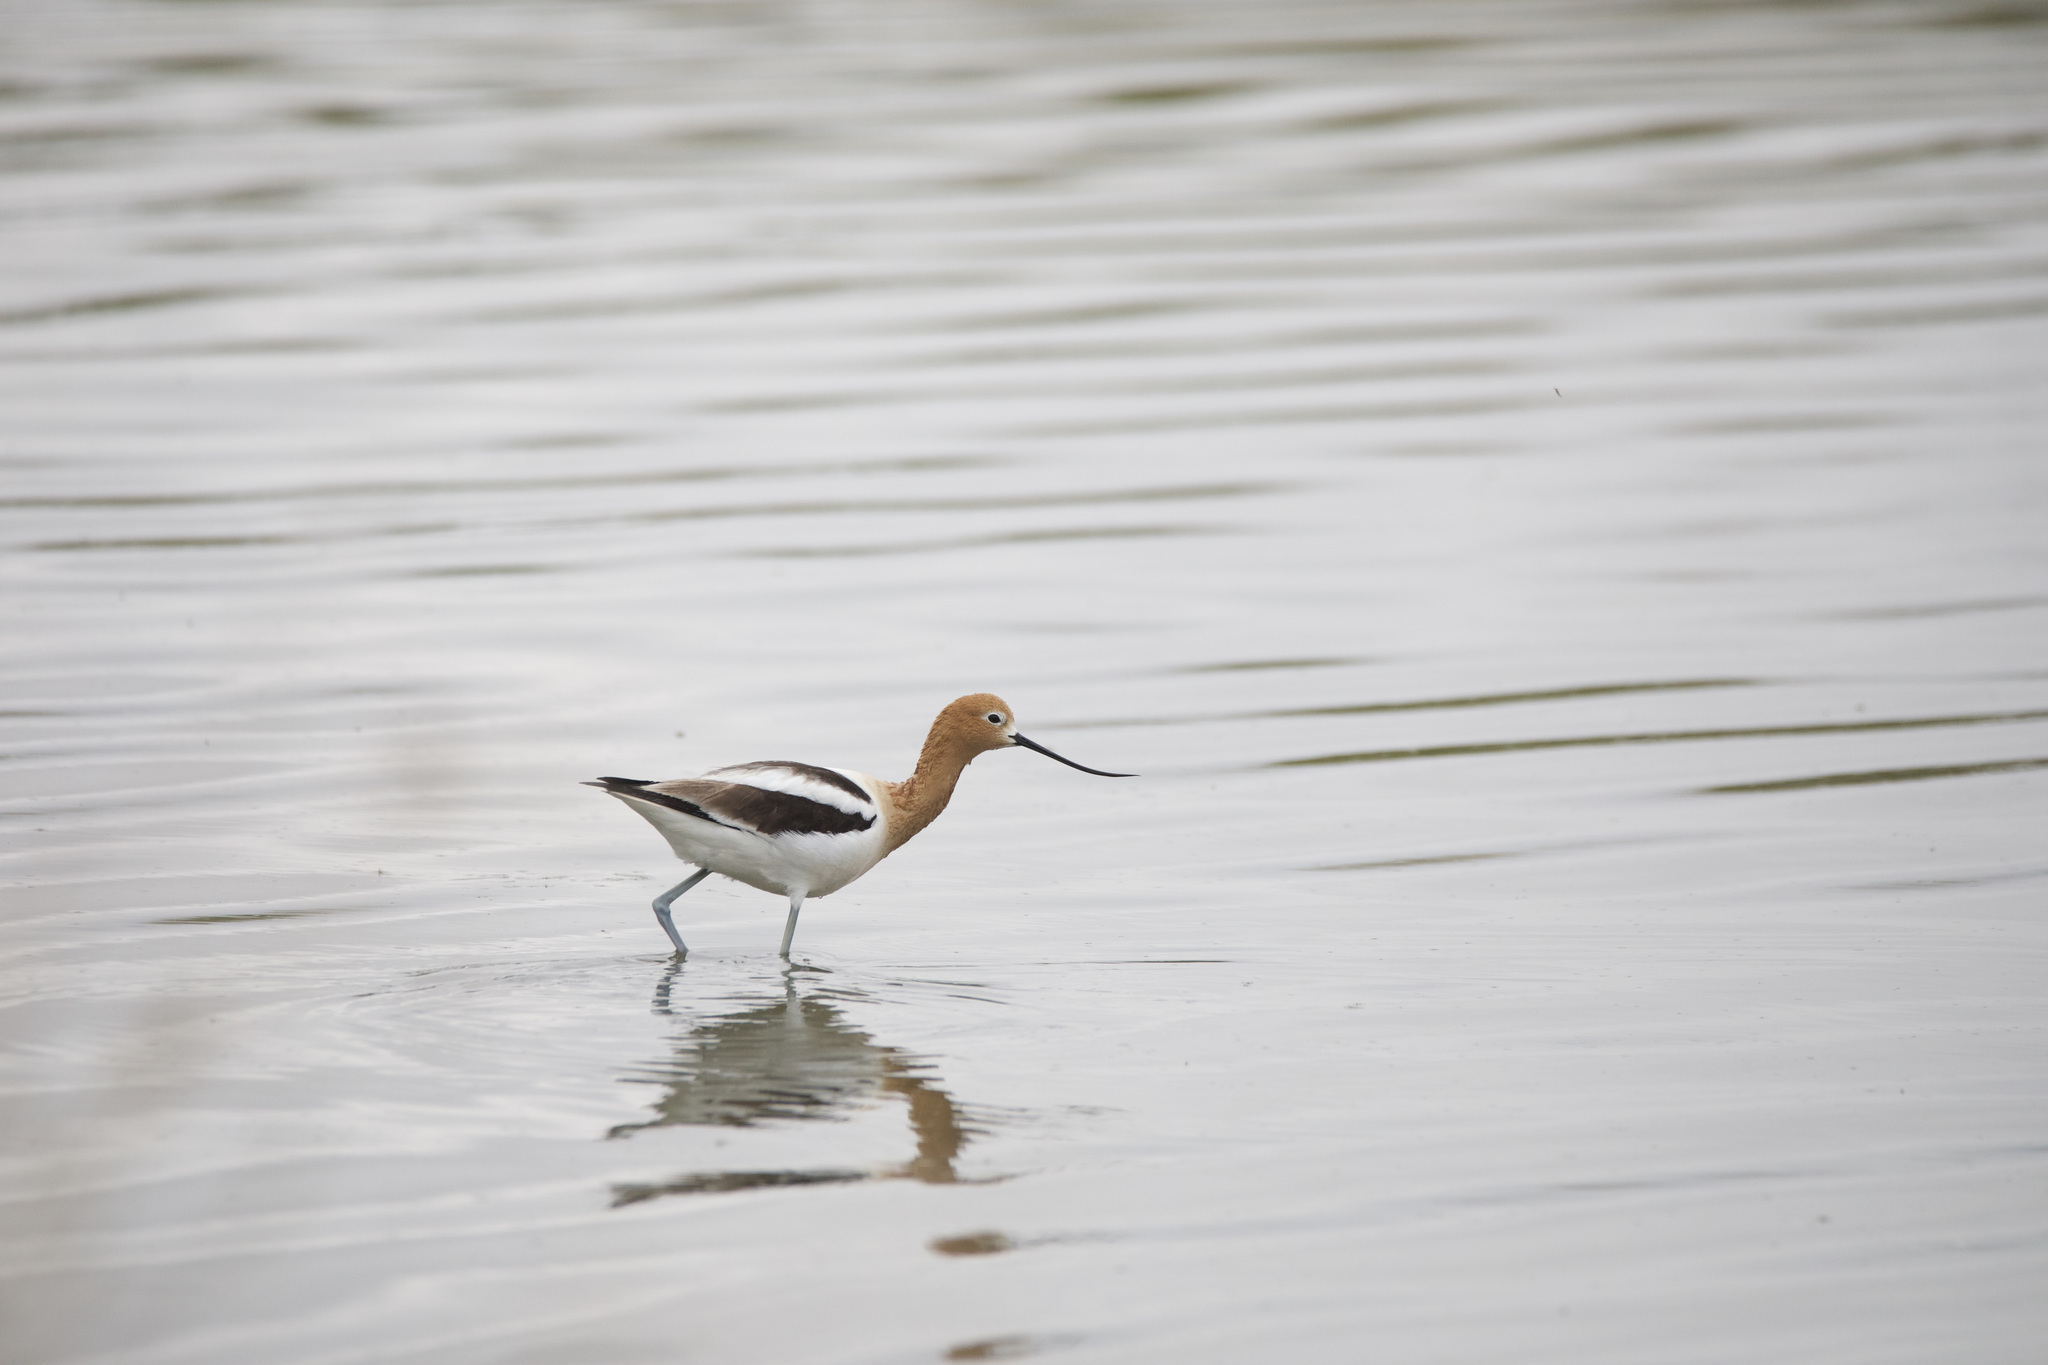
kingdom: Animalia
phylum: Chordata
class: Aves
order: Charadriiformes
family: Recurvirostridae
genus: Recurvirostra
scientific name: Recurvirostra americana
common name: American avocet
